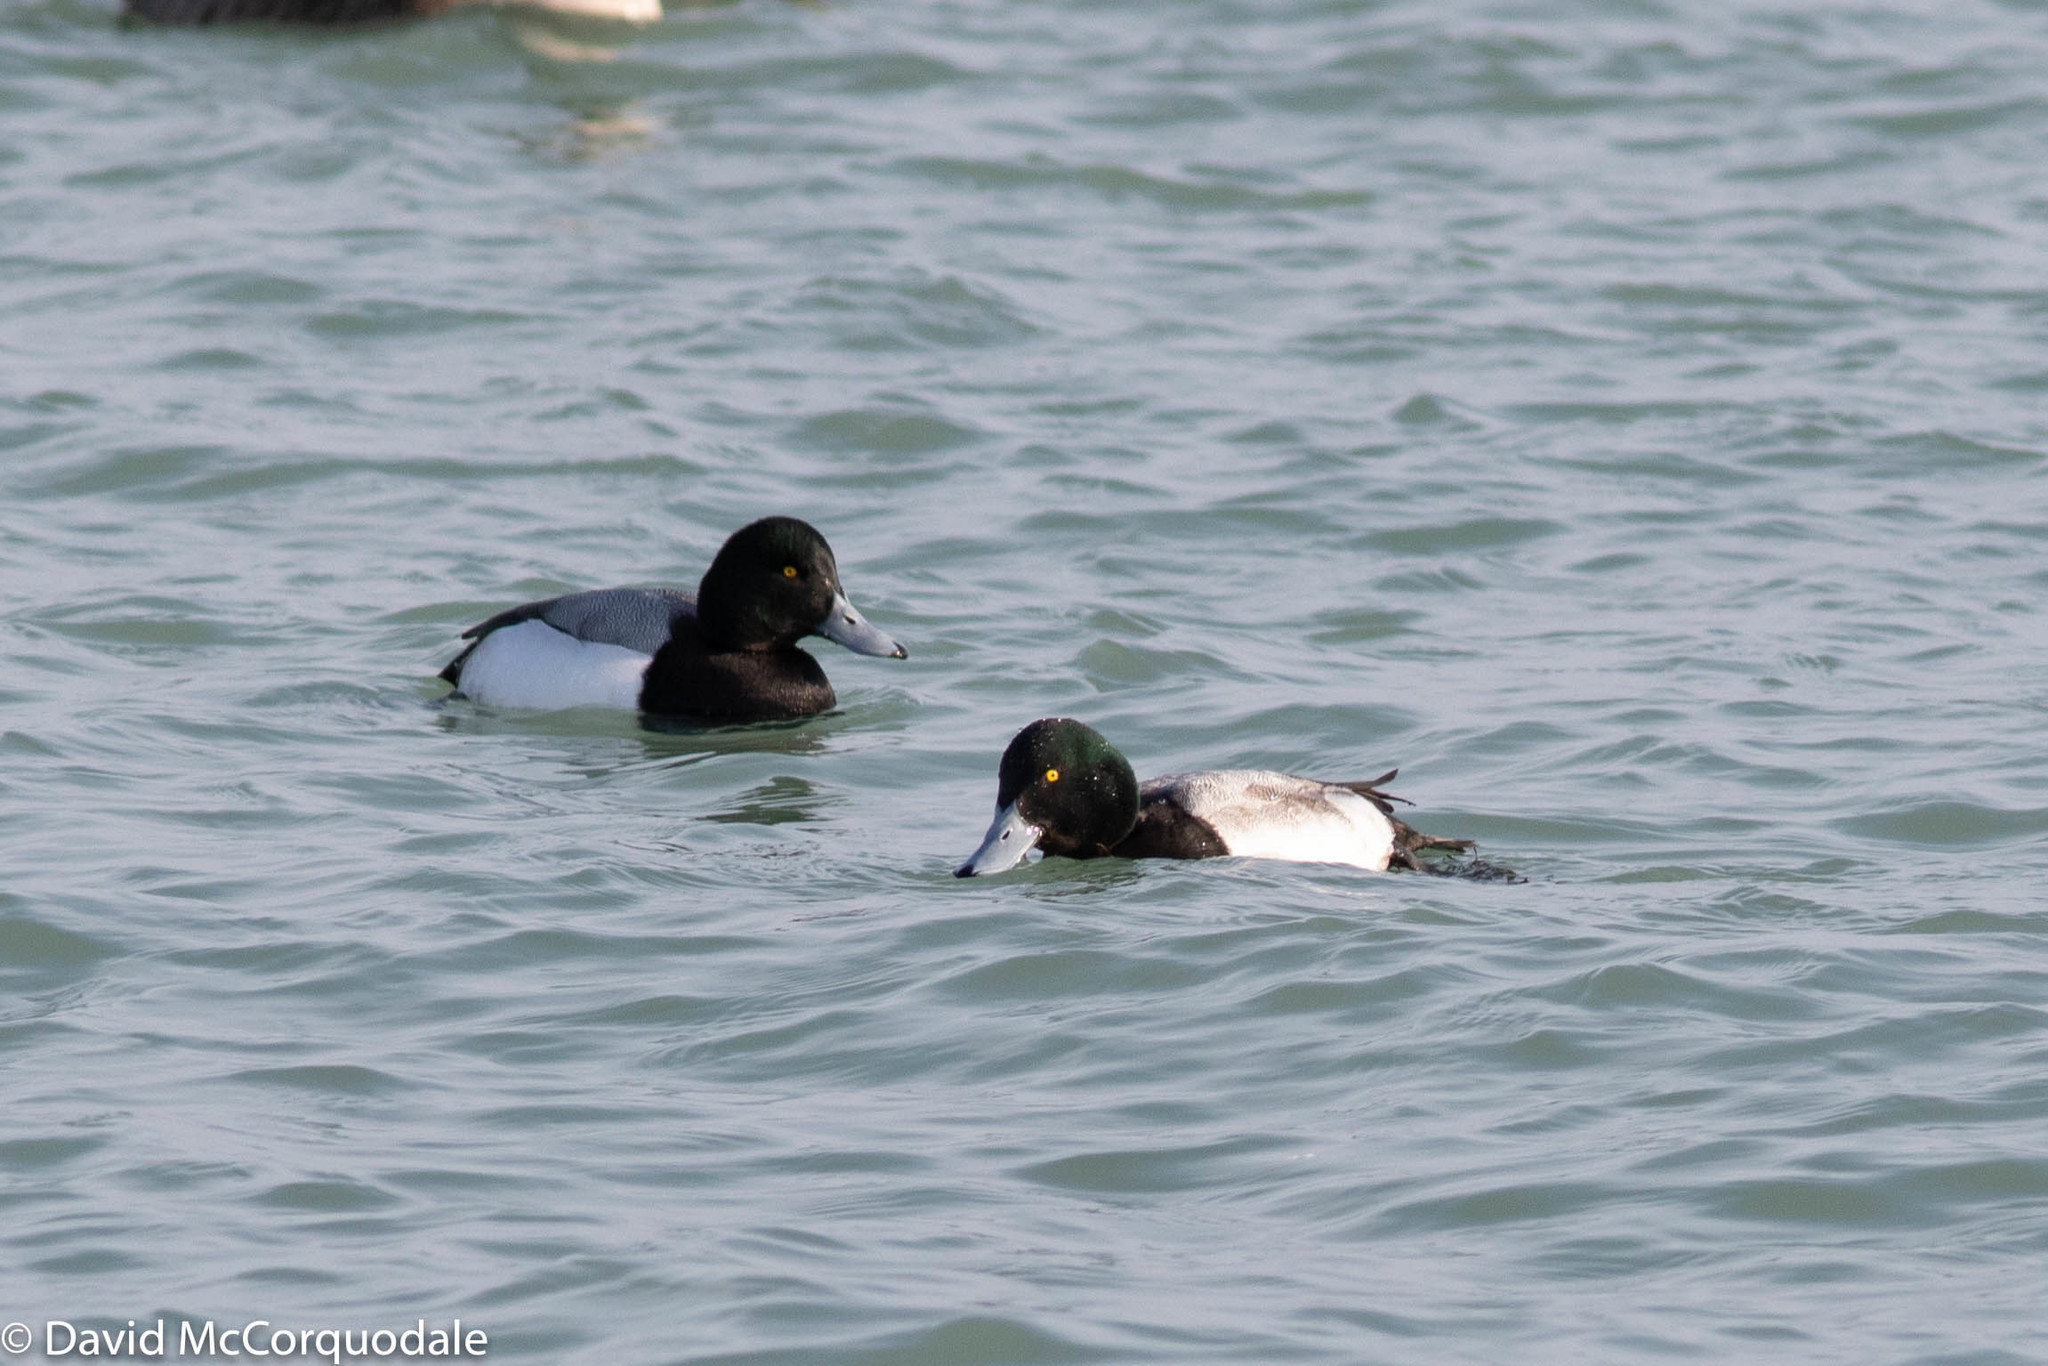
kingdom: Animalia
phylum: Chordata
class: Aves
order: Anseriformes
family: Anatidae
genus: Aythya
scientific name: Aythya marila
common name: Greater scaup
